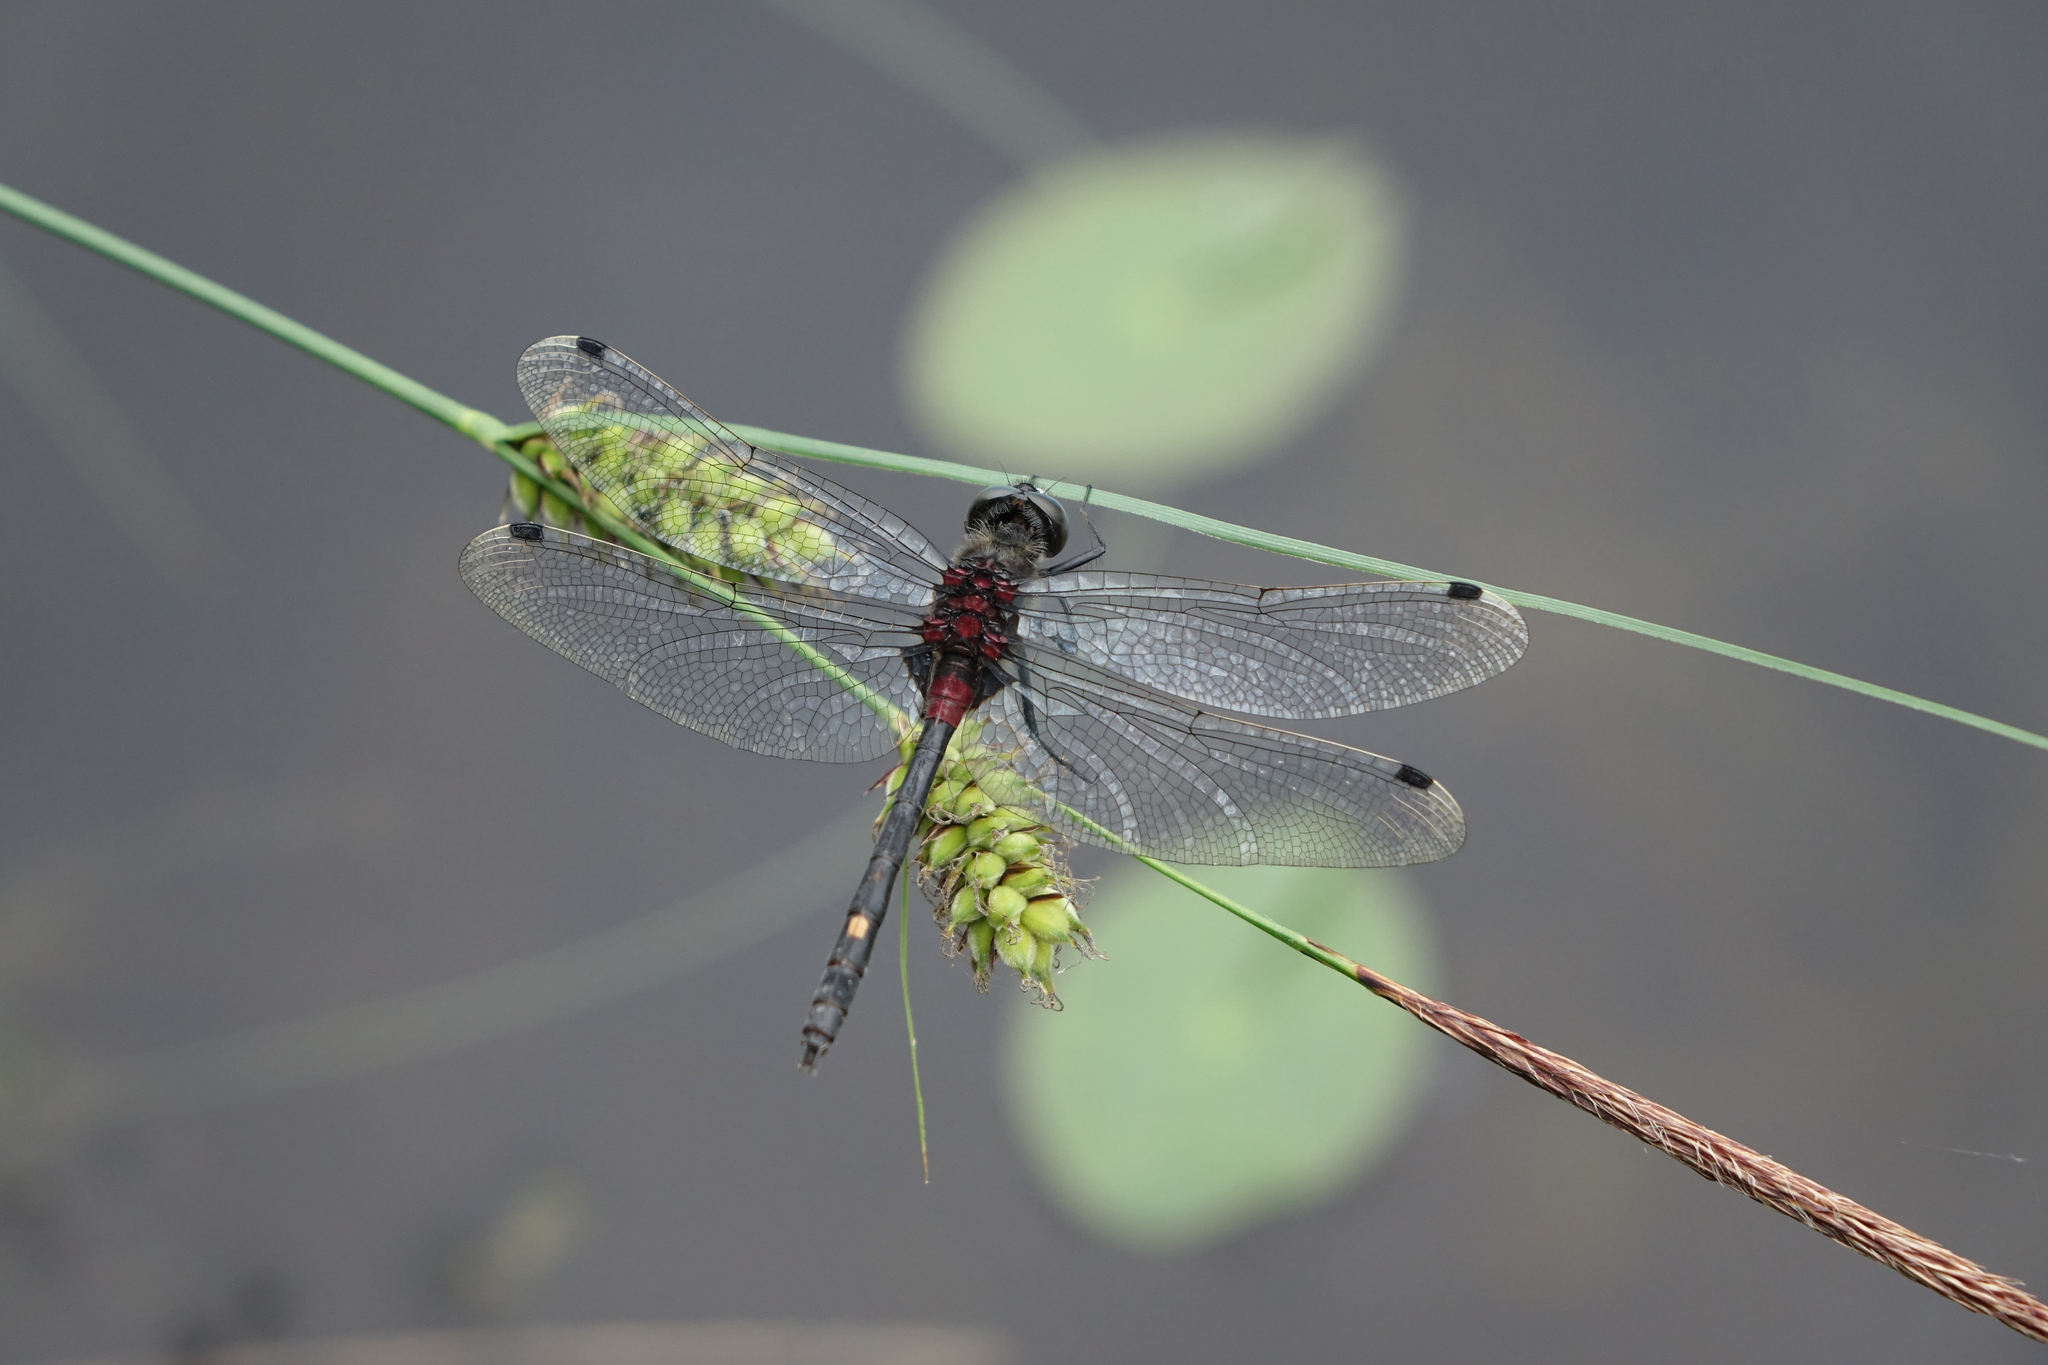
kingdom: Animalia
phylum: Arthropoda
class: Insecta
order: Odonata
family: Libellulidae
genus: Leucorrhinia
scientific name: Leucorrhinia orientalis
